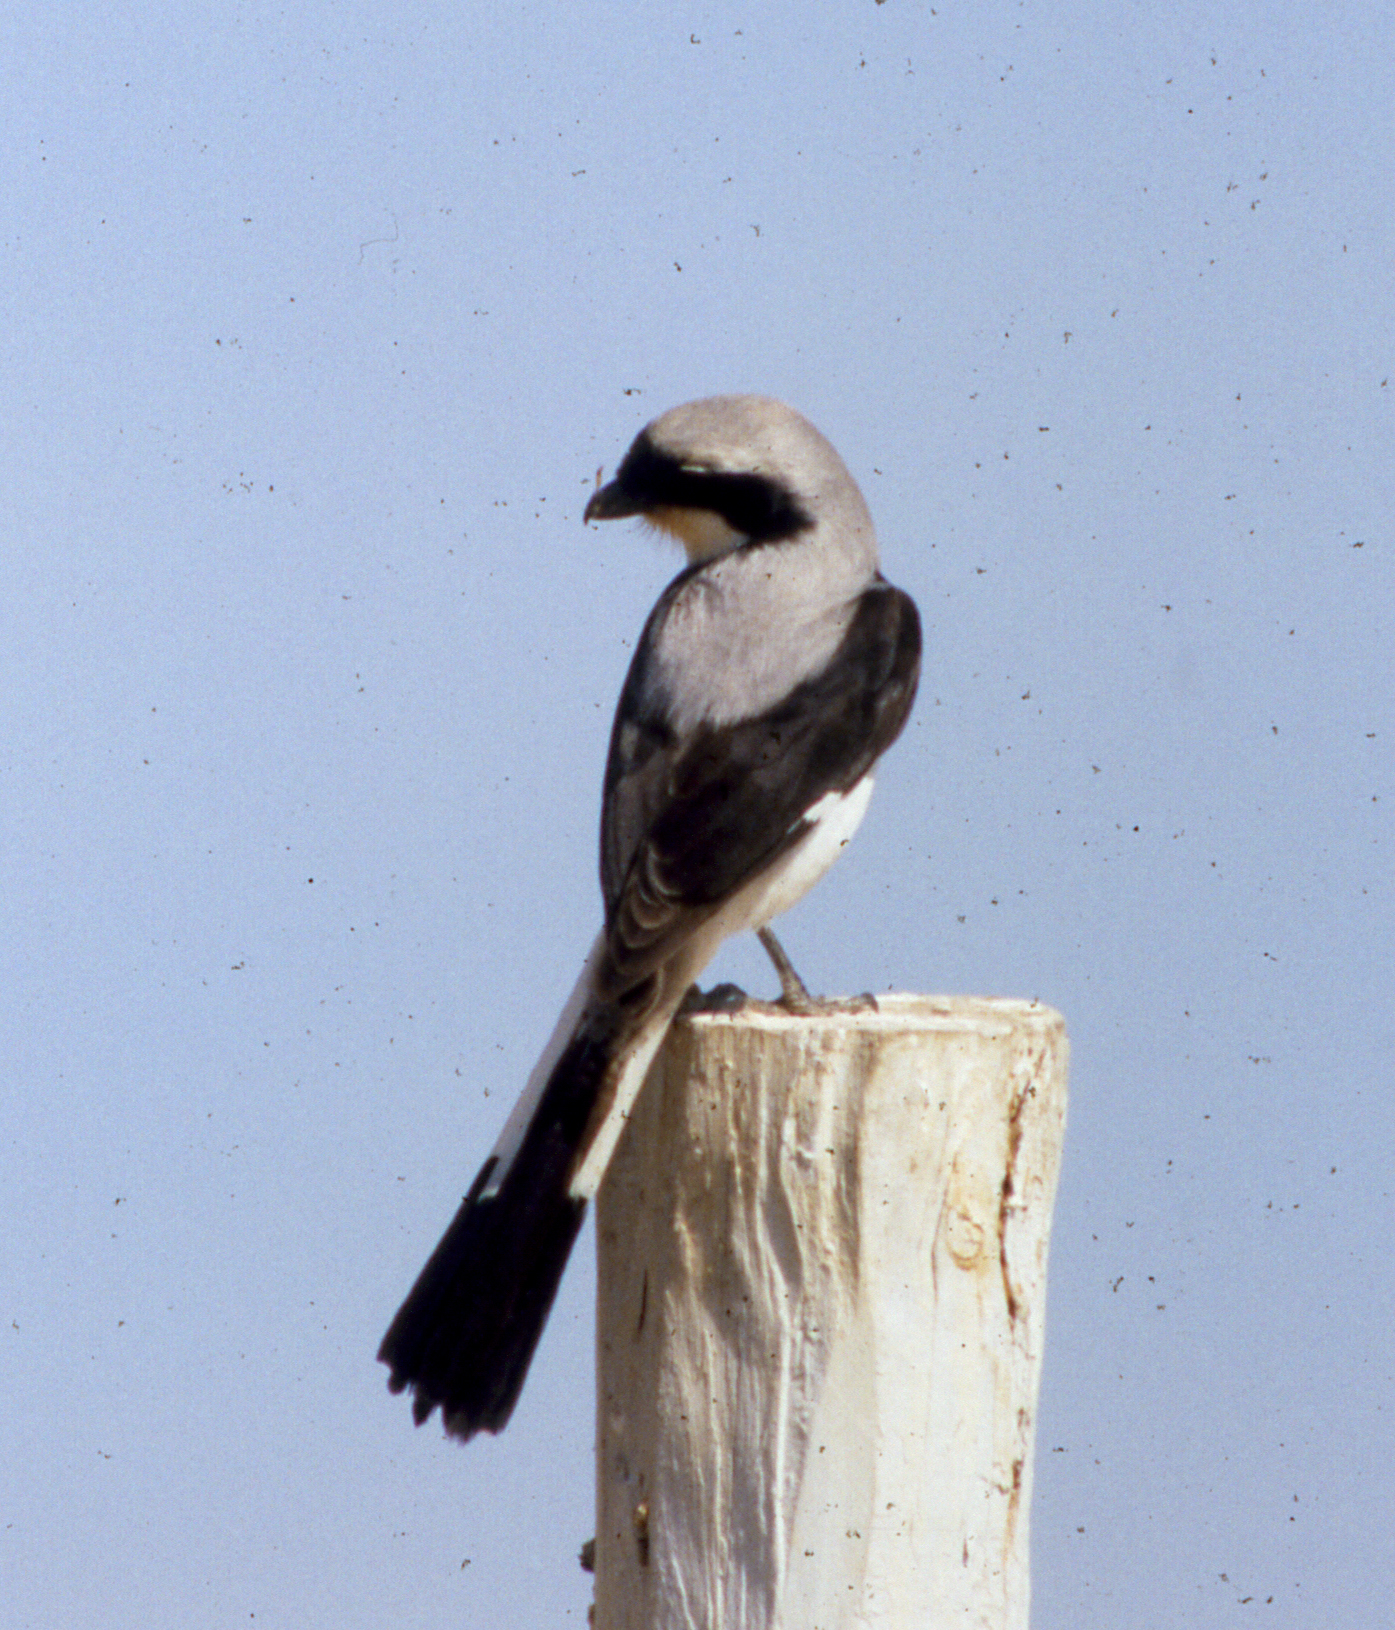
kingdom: Animalia
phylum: Chordata
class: Aves
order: Passeriformes
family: Laniidae
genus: Lanius
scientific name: Lanius excubitoroides
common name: Grey-backed fiscal
